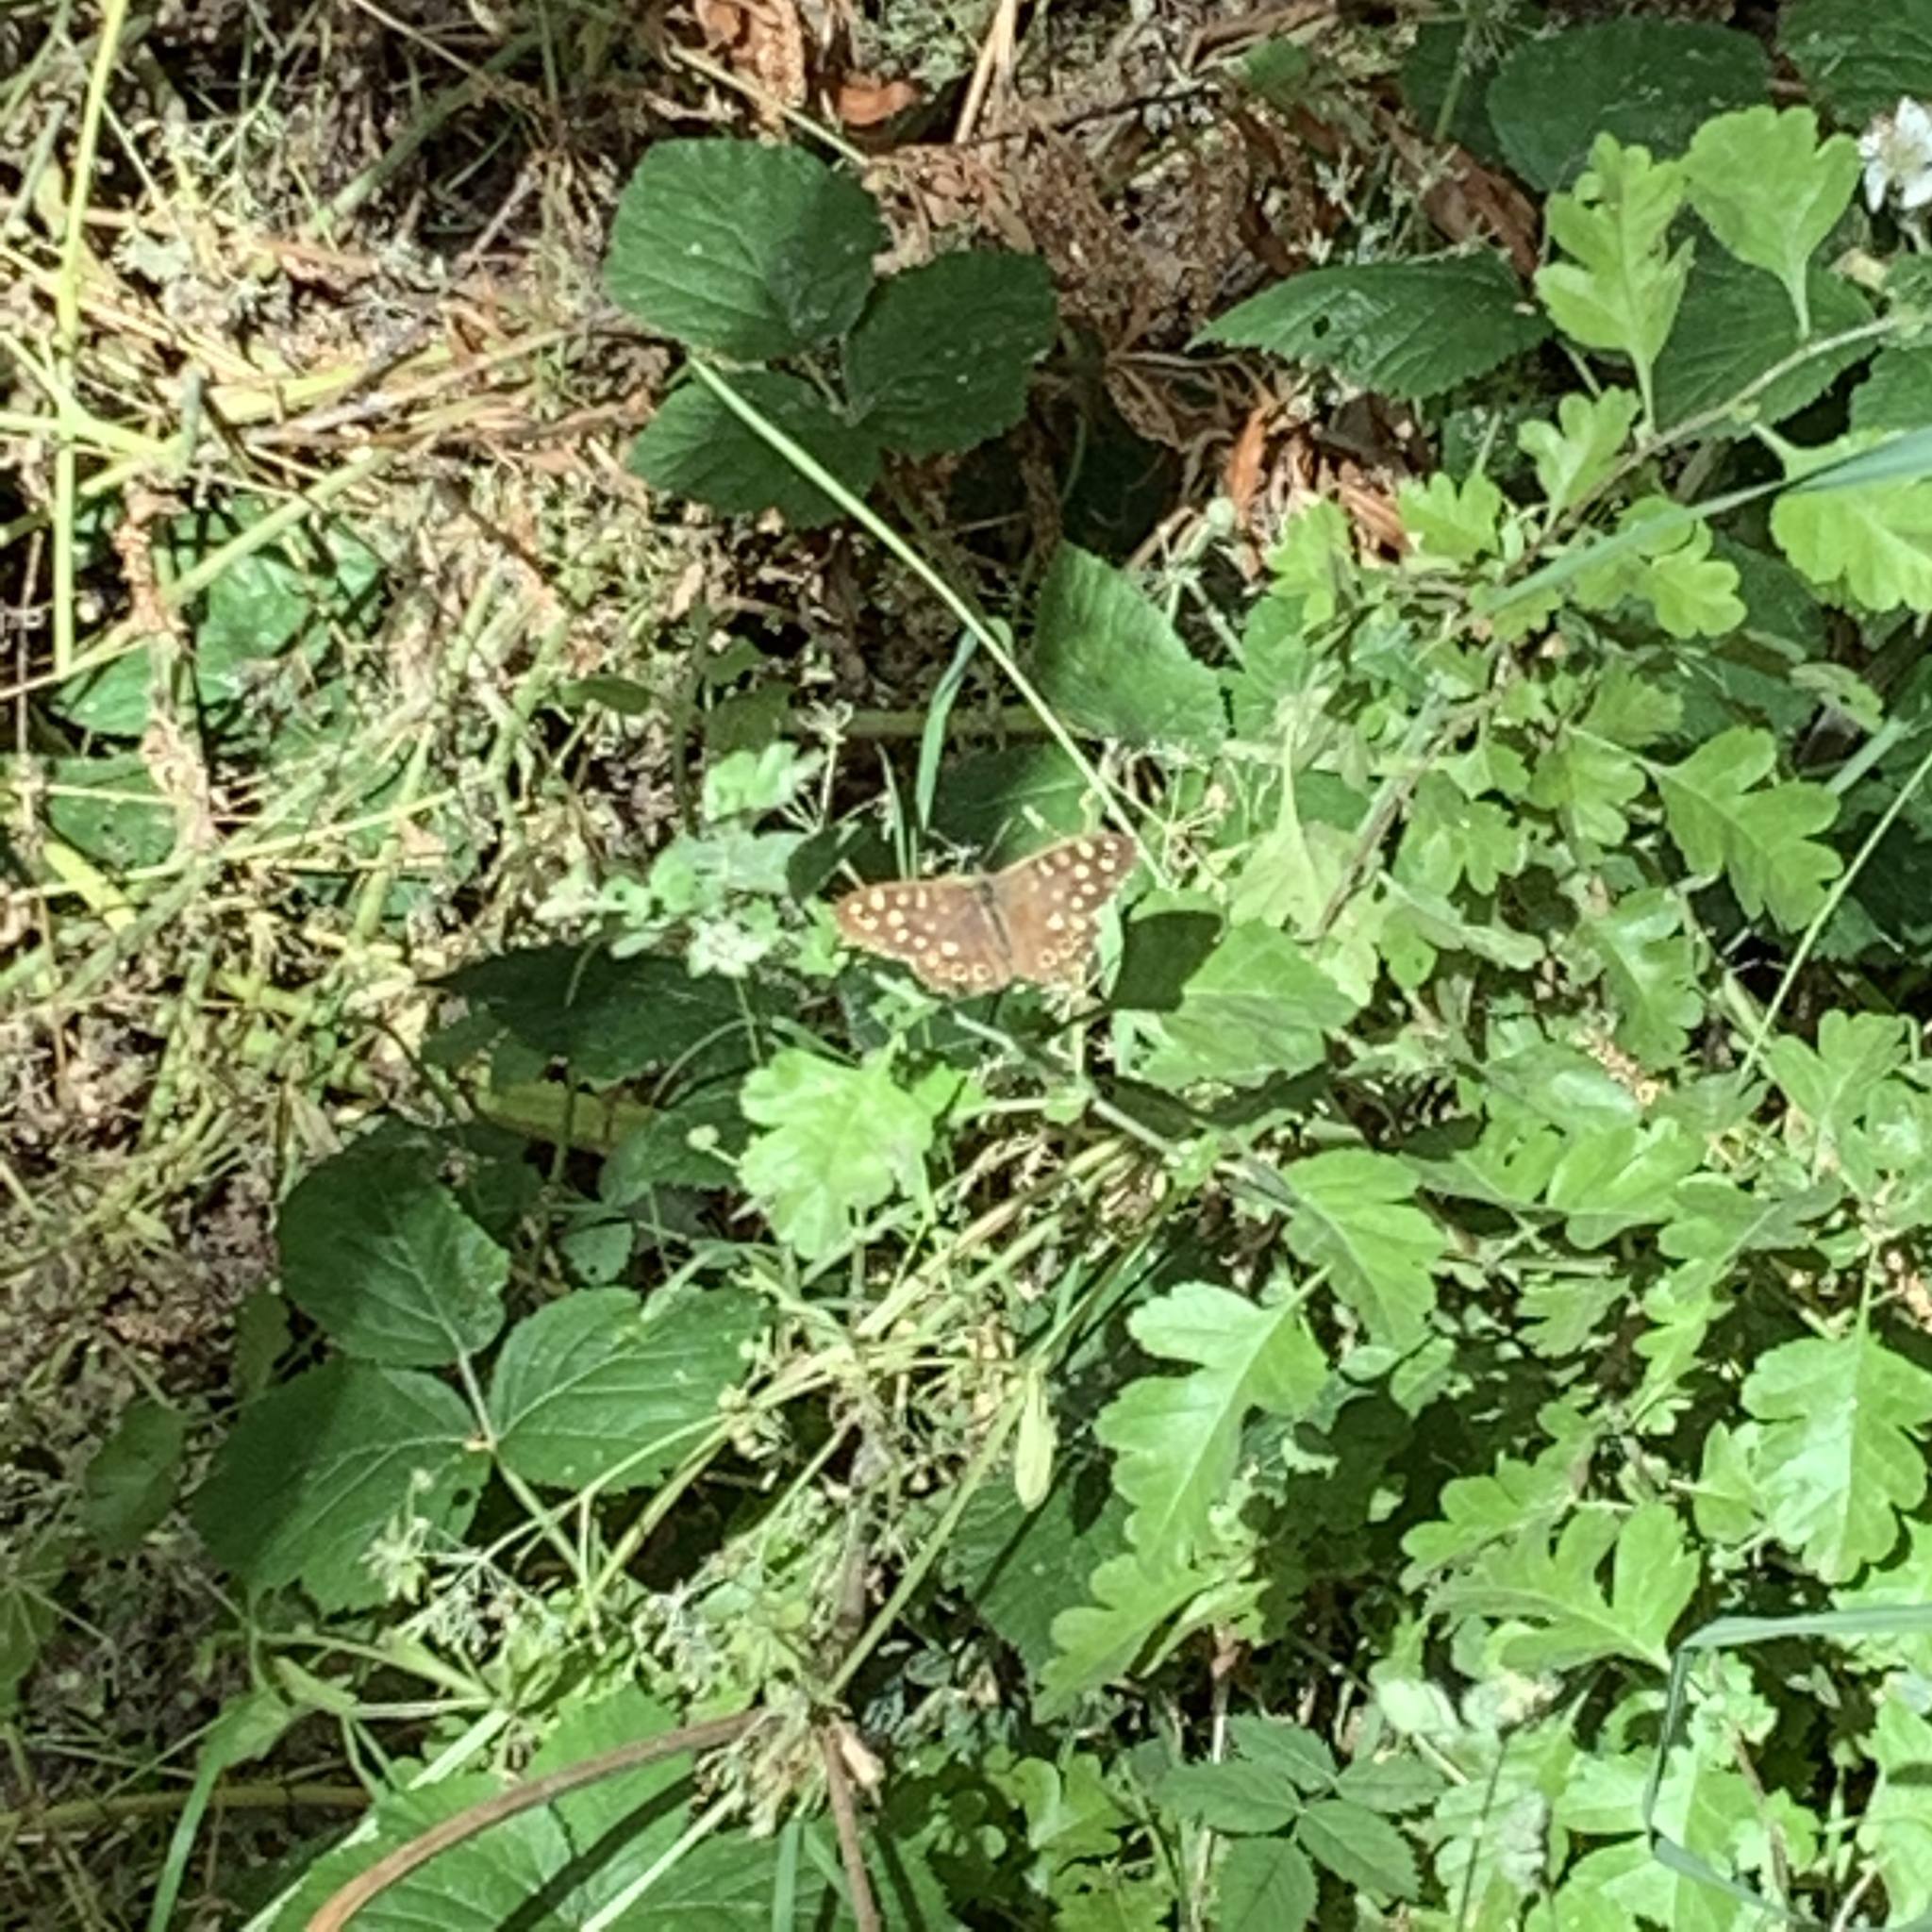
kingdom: Animalia
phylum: Arthropoda
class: Insecta
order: Lepidoptera
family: Nymphalidae
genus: Pararge
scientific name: Pararge aegeria
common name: Speckled wood
